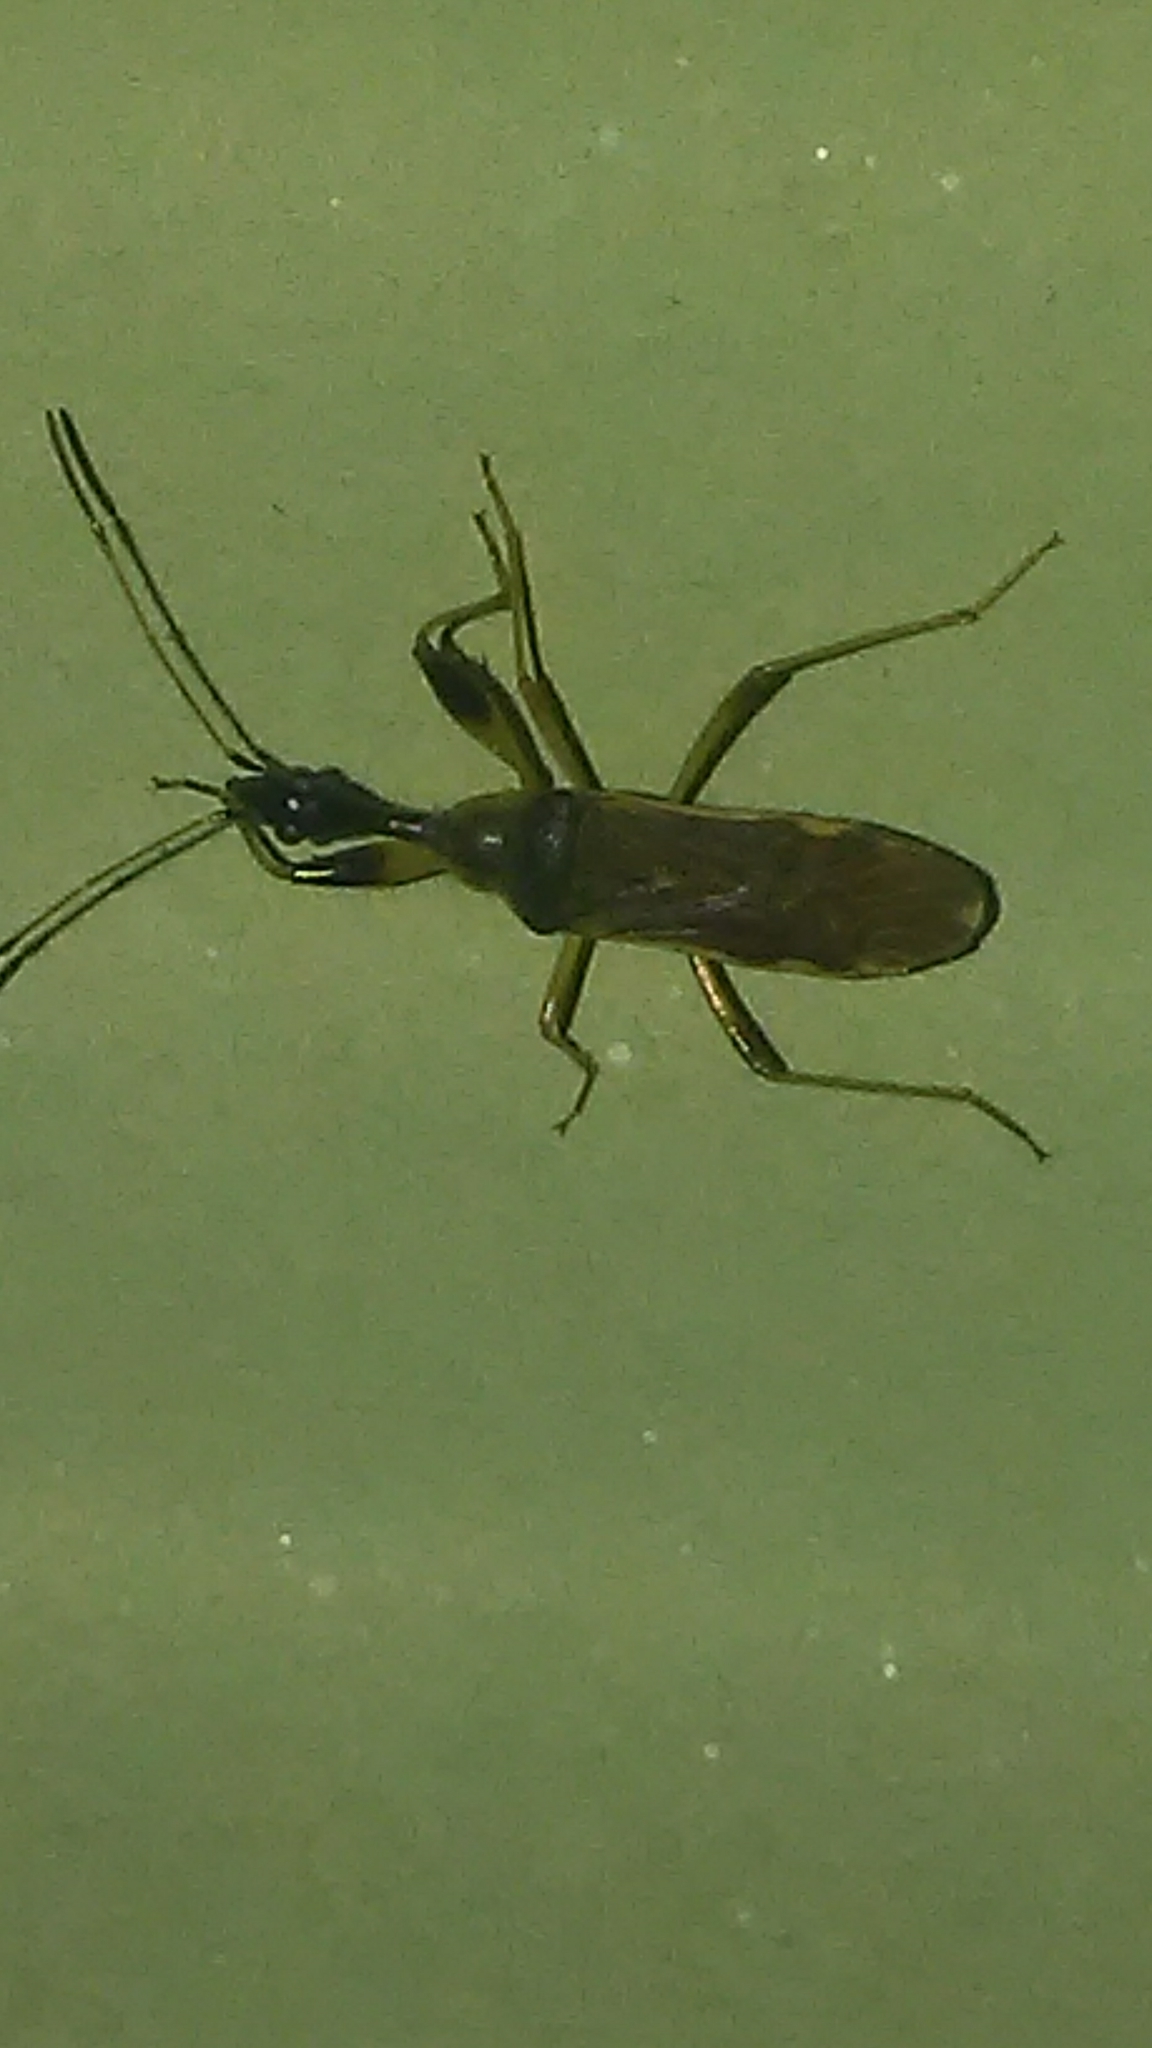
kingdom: Animalia
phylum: Arthropoda
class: Insecta
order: Hemiptera
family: Rhyparochromidae
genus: Myodocha
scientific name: Myodocha serripes
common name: Long-necked seed bug
